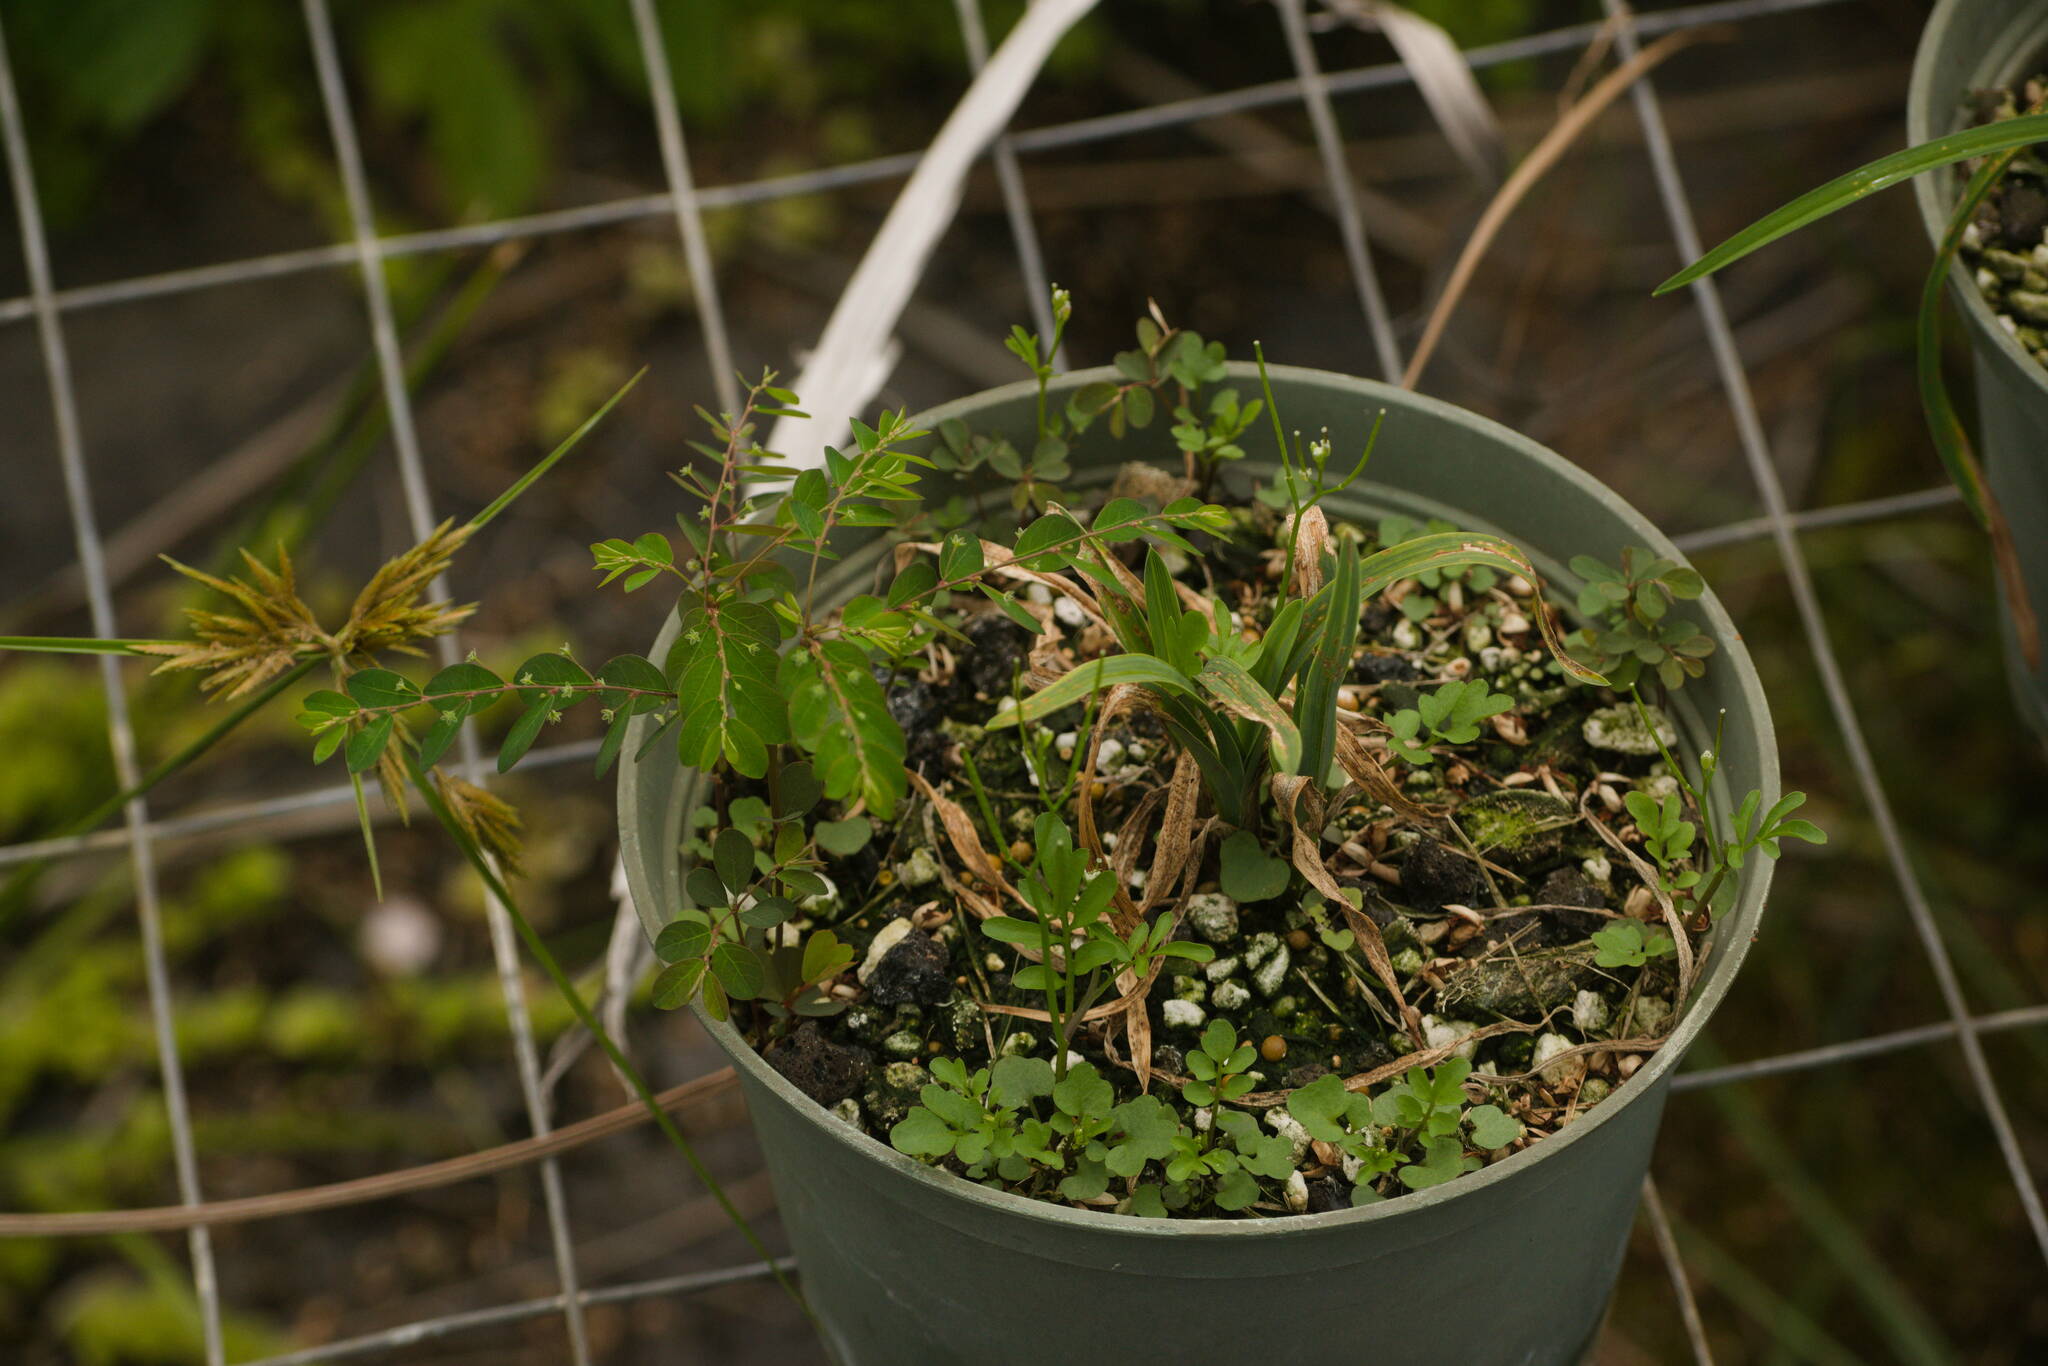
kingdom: Plantae
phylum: Tracheophyta
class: Magnoliopsida
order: Malpighiales
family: Phyllanthaceae
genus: Phyllanthus
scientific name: Phyllanthus tenellus
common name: Mascarene island leaf-flower
